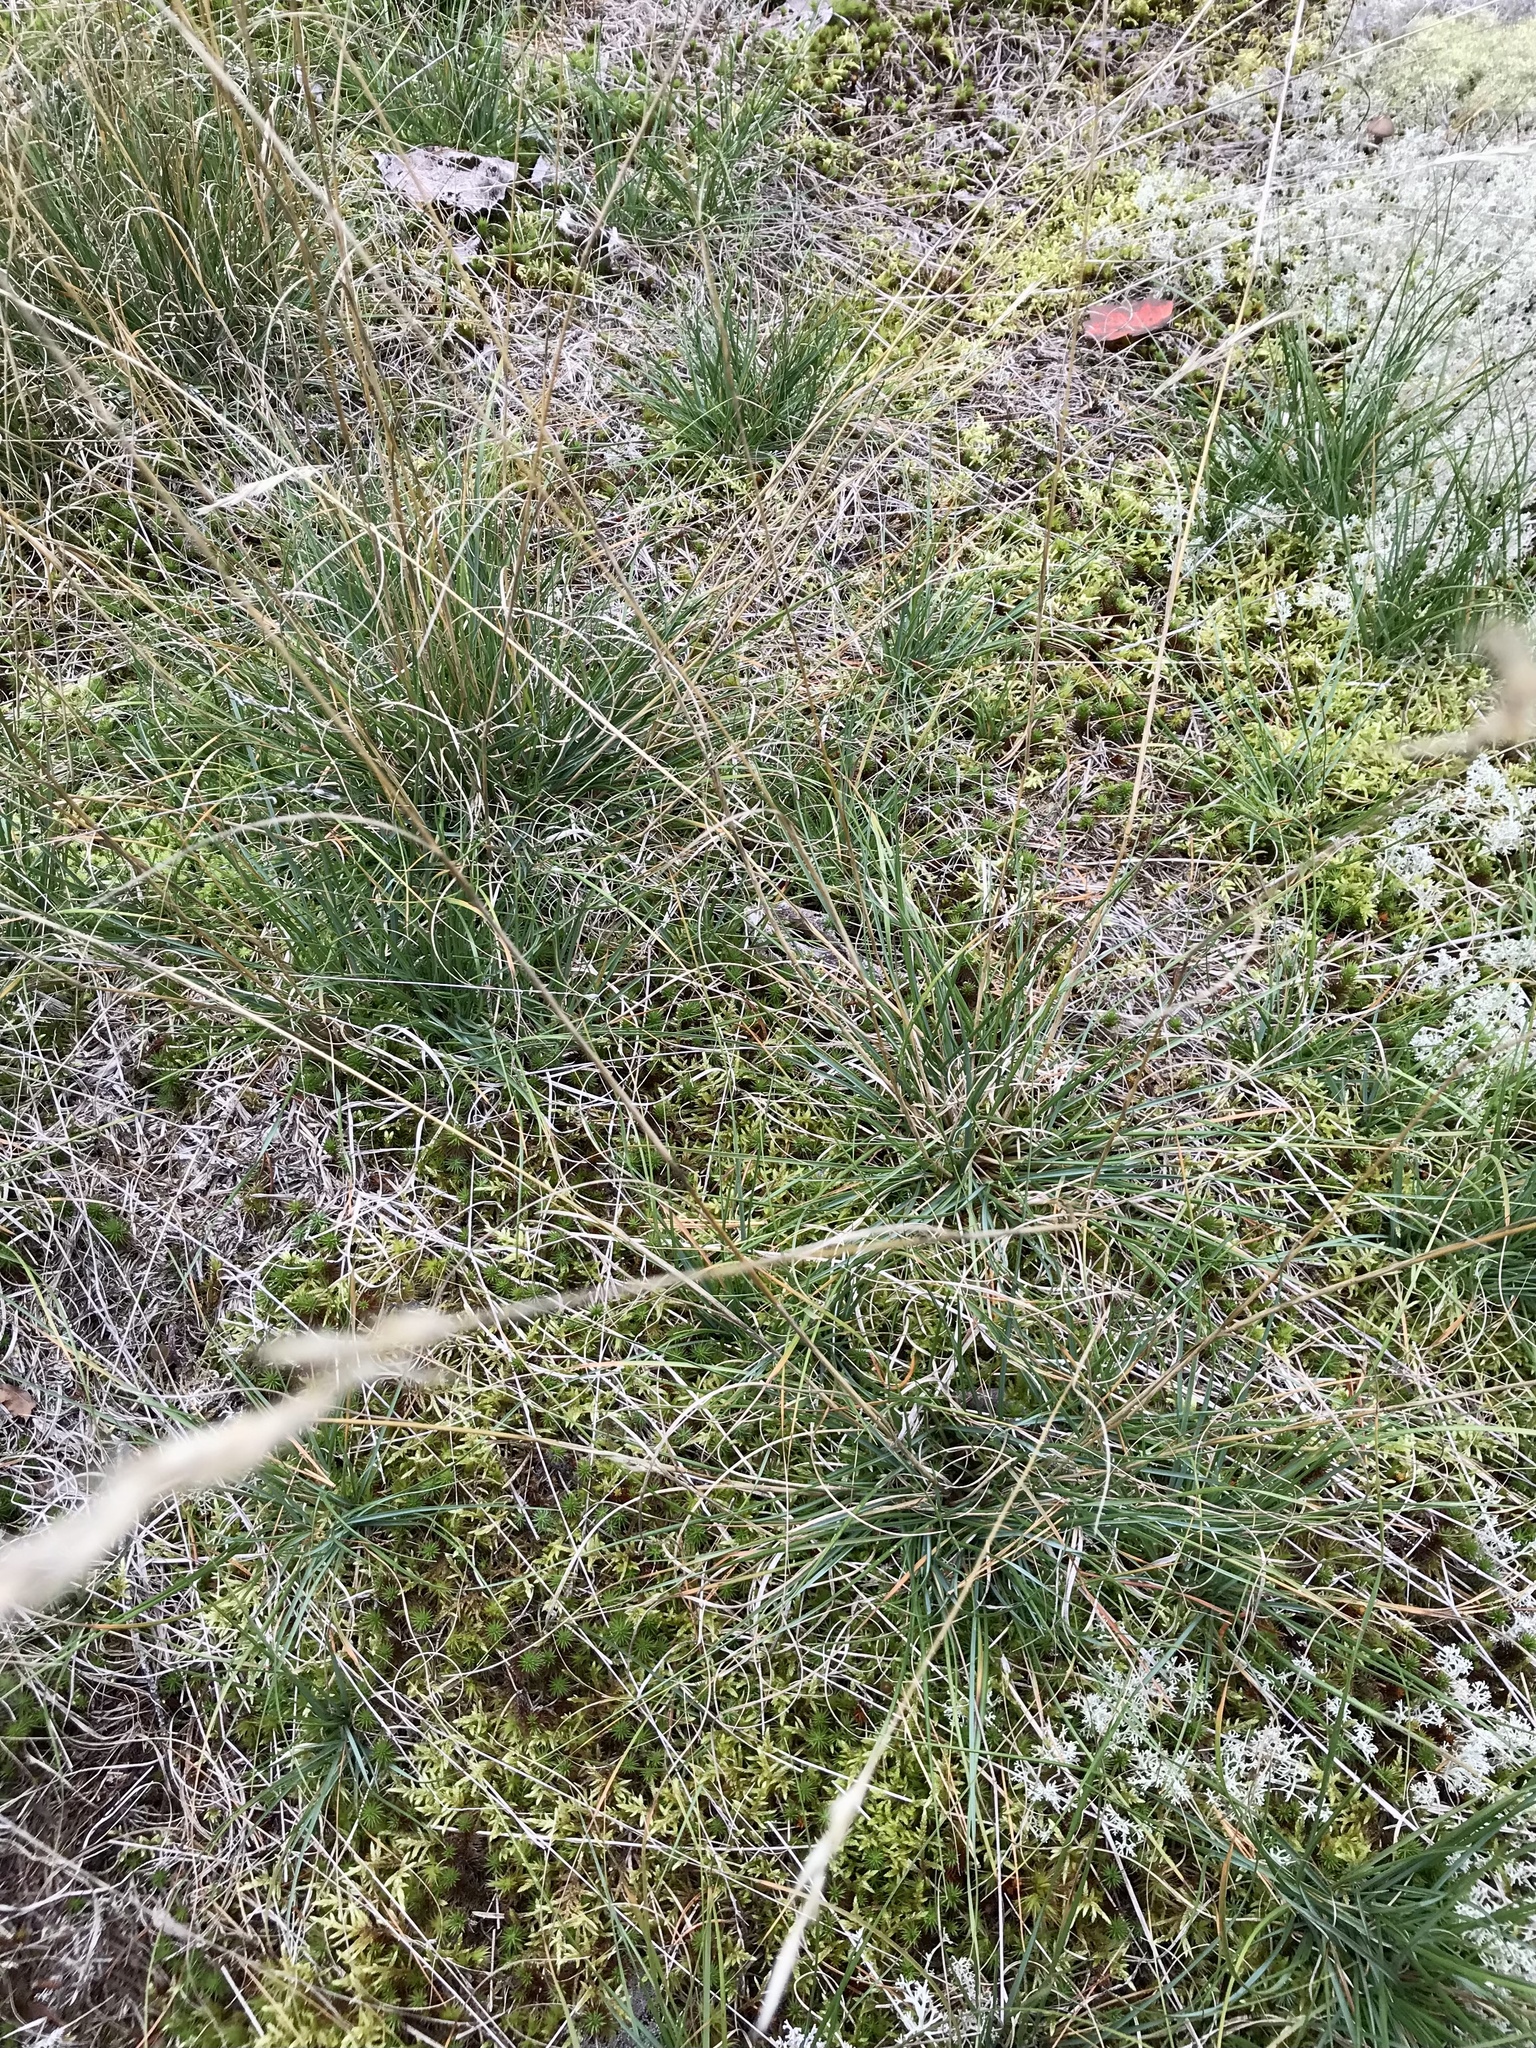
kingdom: Plantae
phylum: Tracheophyta
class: Liliopsida
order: Poales
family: Poaceae
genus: Danthonia
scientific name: Danthonia spicata
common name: Common wild oatgrass
